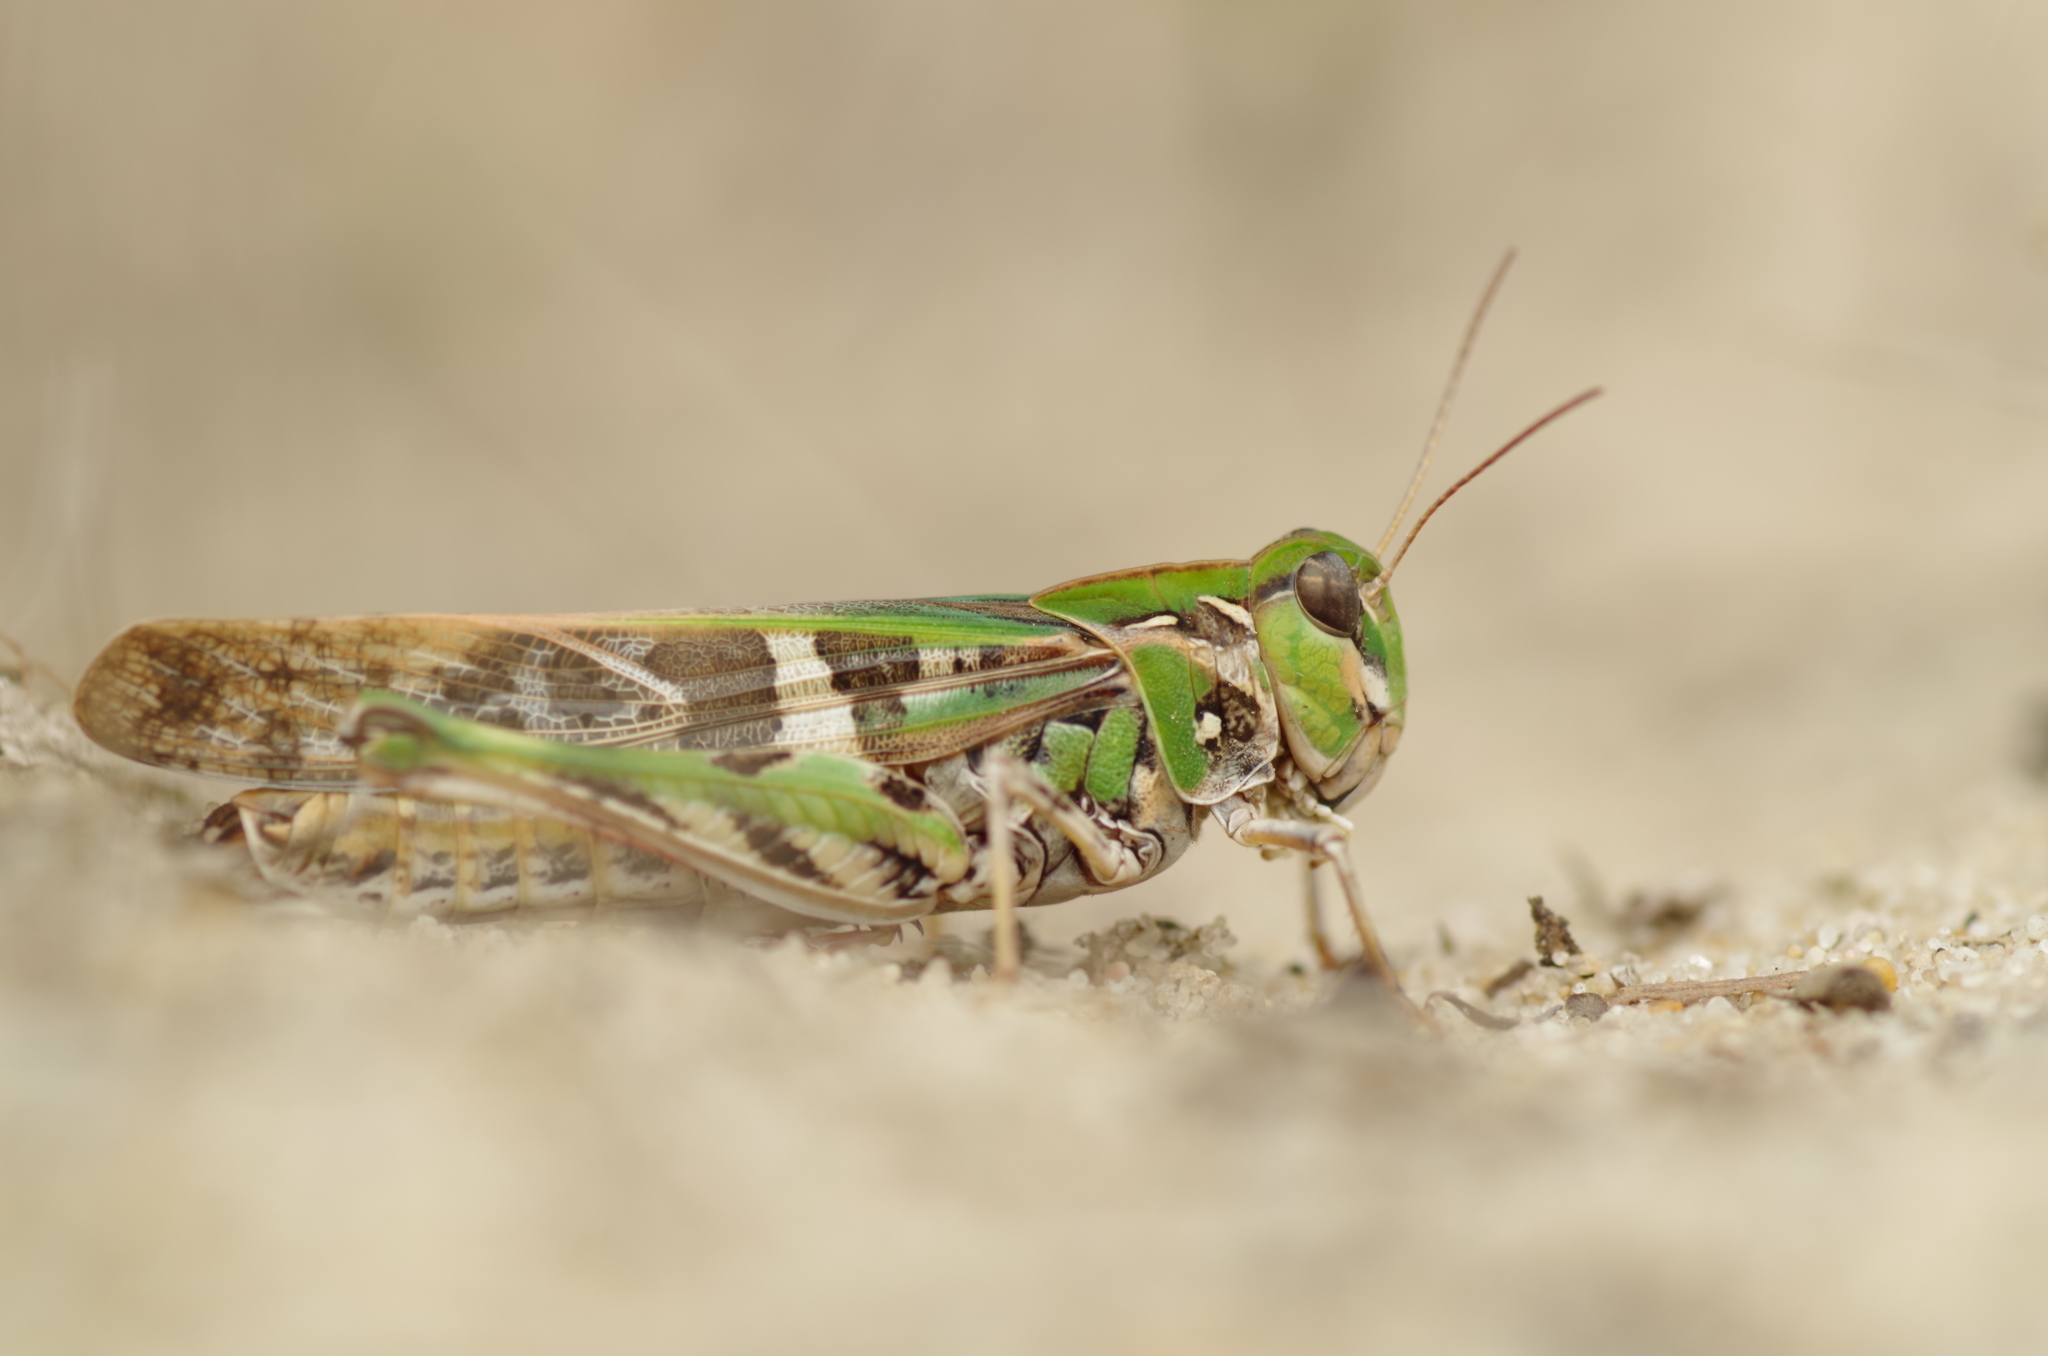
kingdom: Animalia
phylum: Arthropoda
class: Insecta
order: Orthoptera
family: Acrididae
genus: Oedaleus
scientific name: Oedaleus decorus
